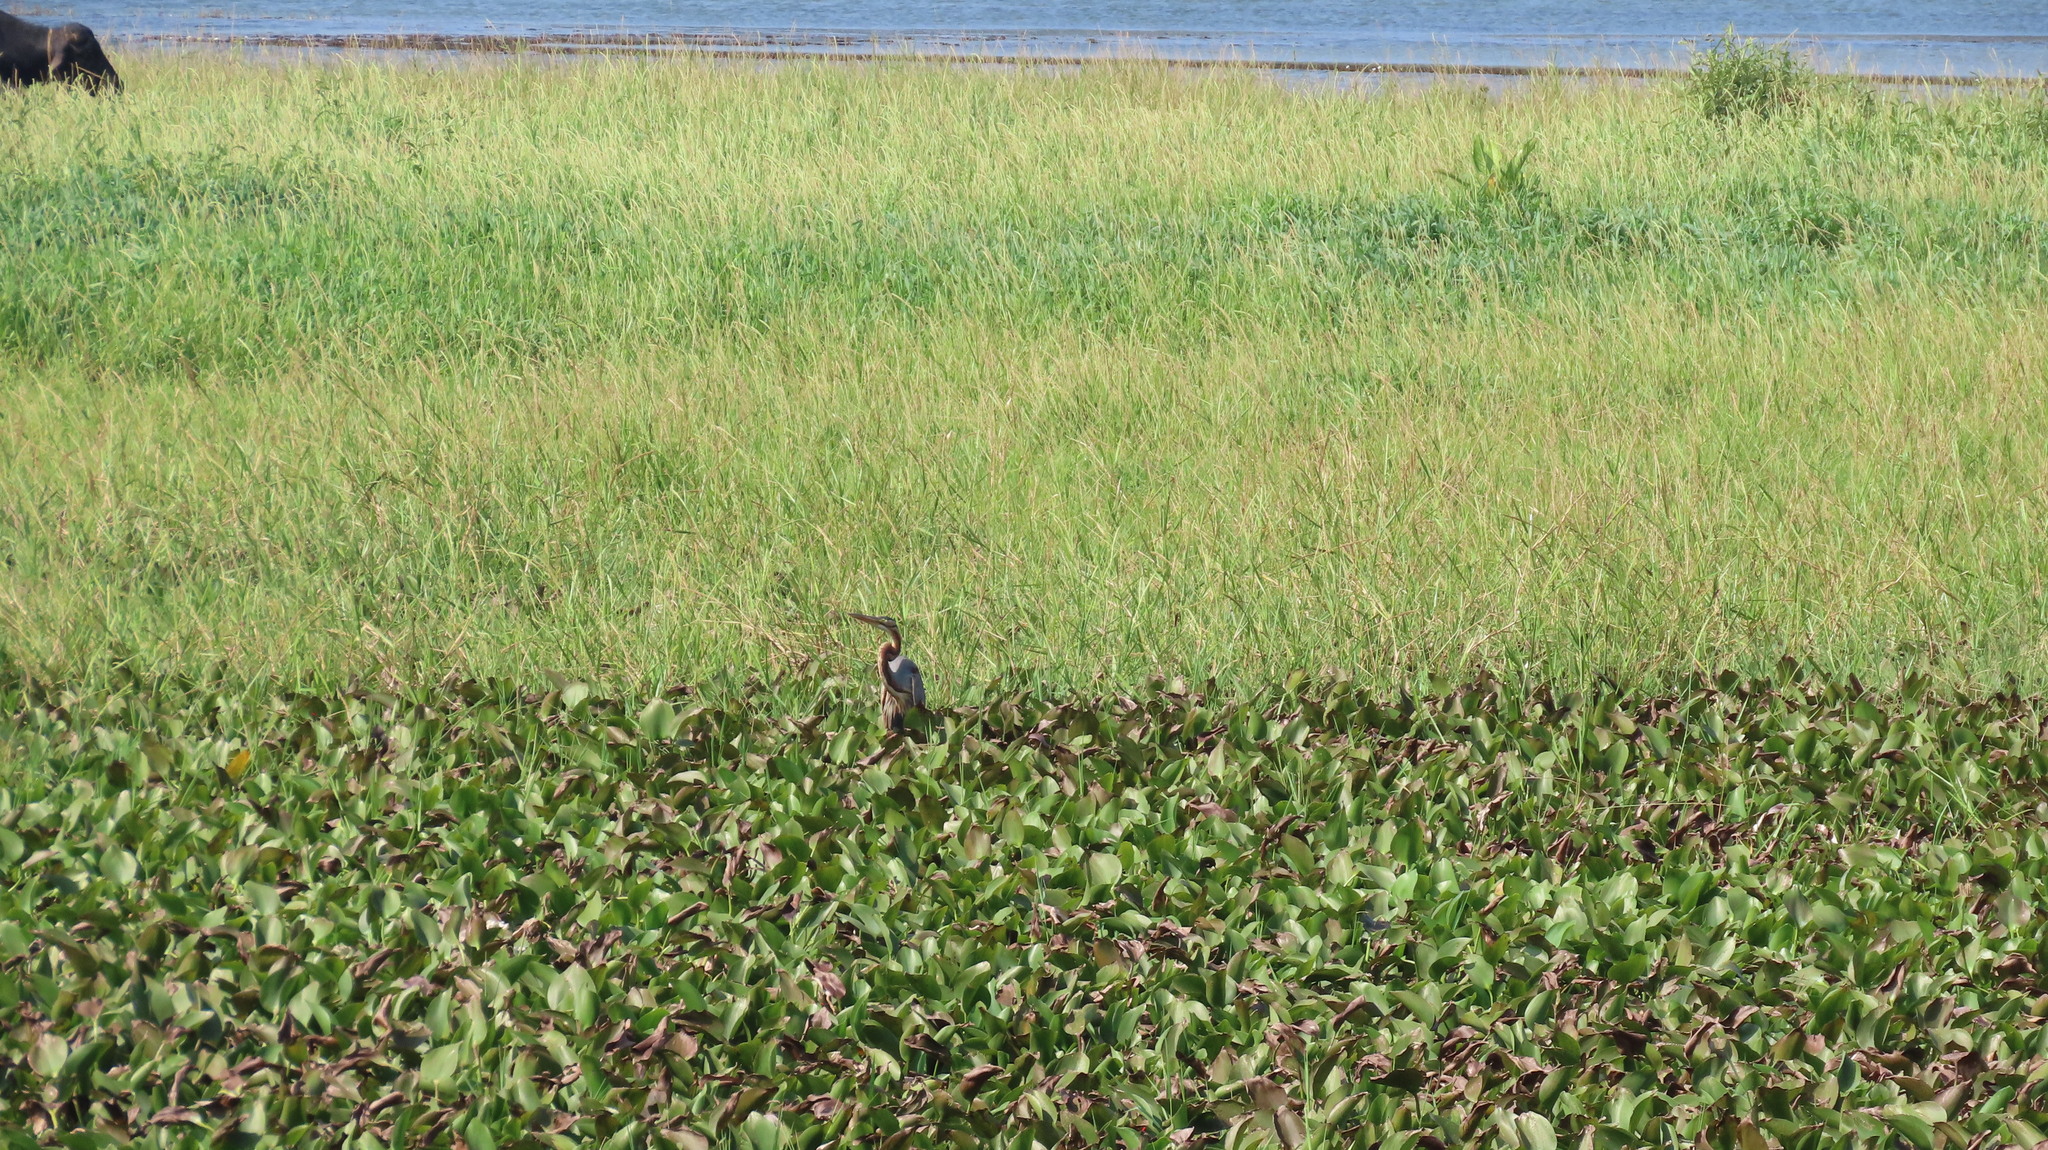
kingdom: Animalia
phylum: Chordata
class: Aves
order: Pelecaniformes
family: Ardeidae
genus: Ardea
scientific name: Ardea purpurea
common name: Purple heron
